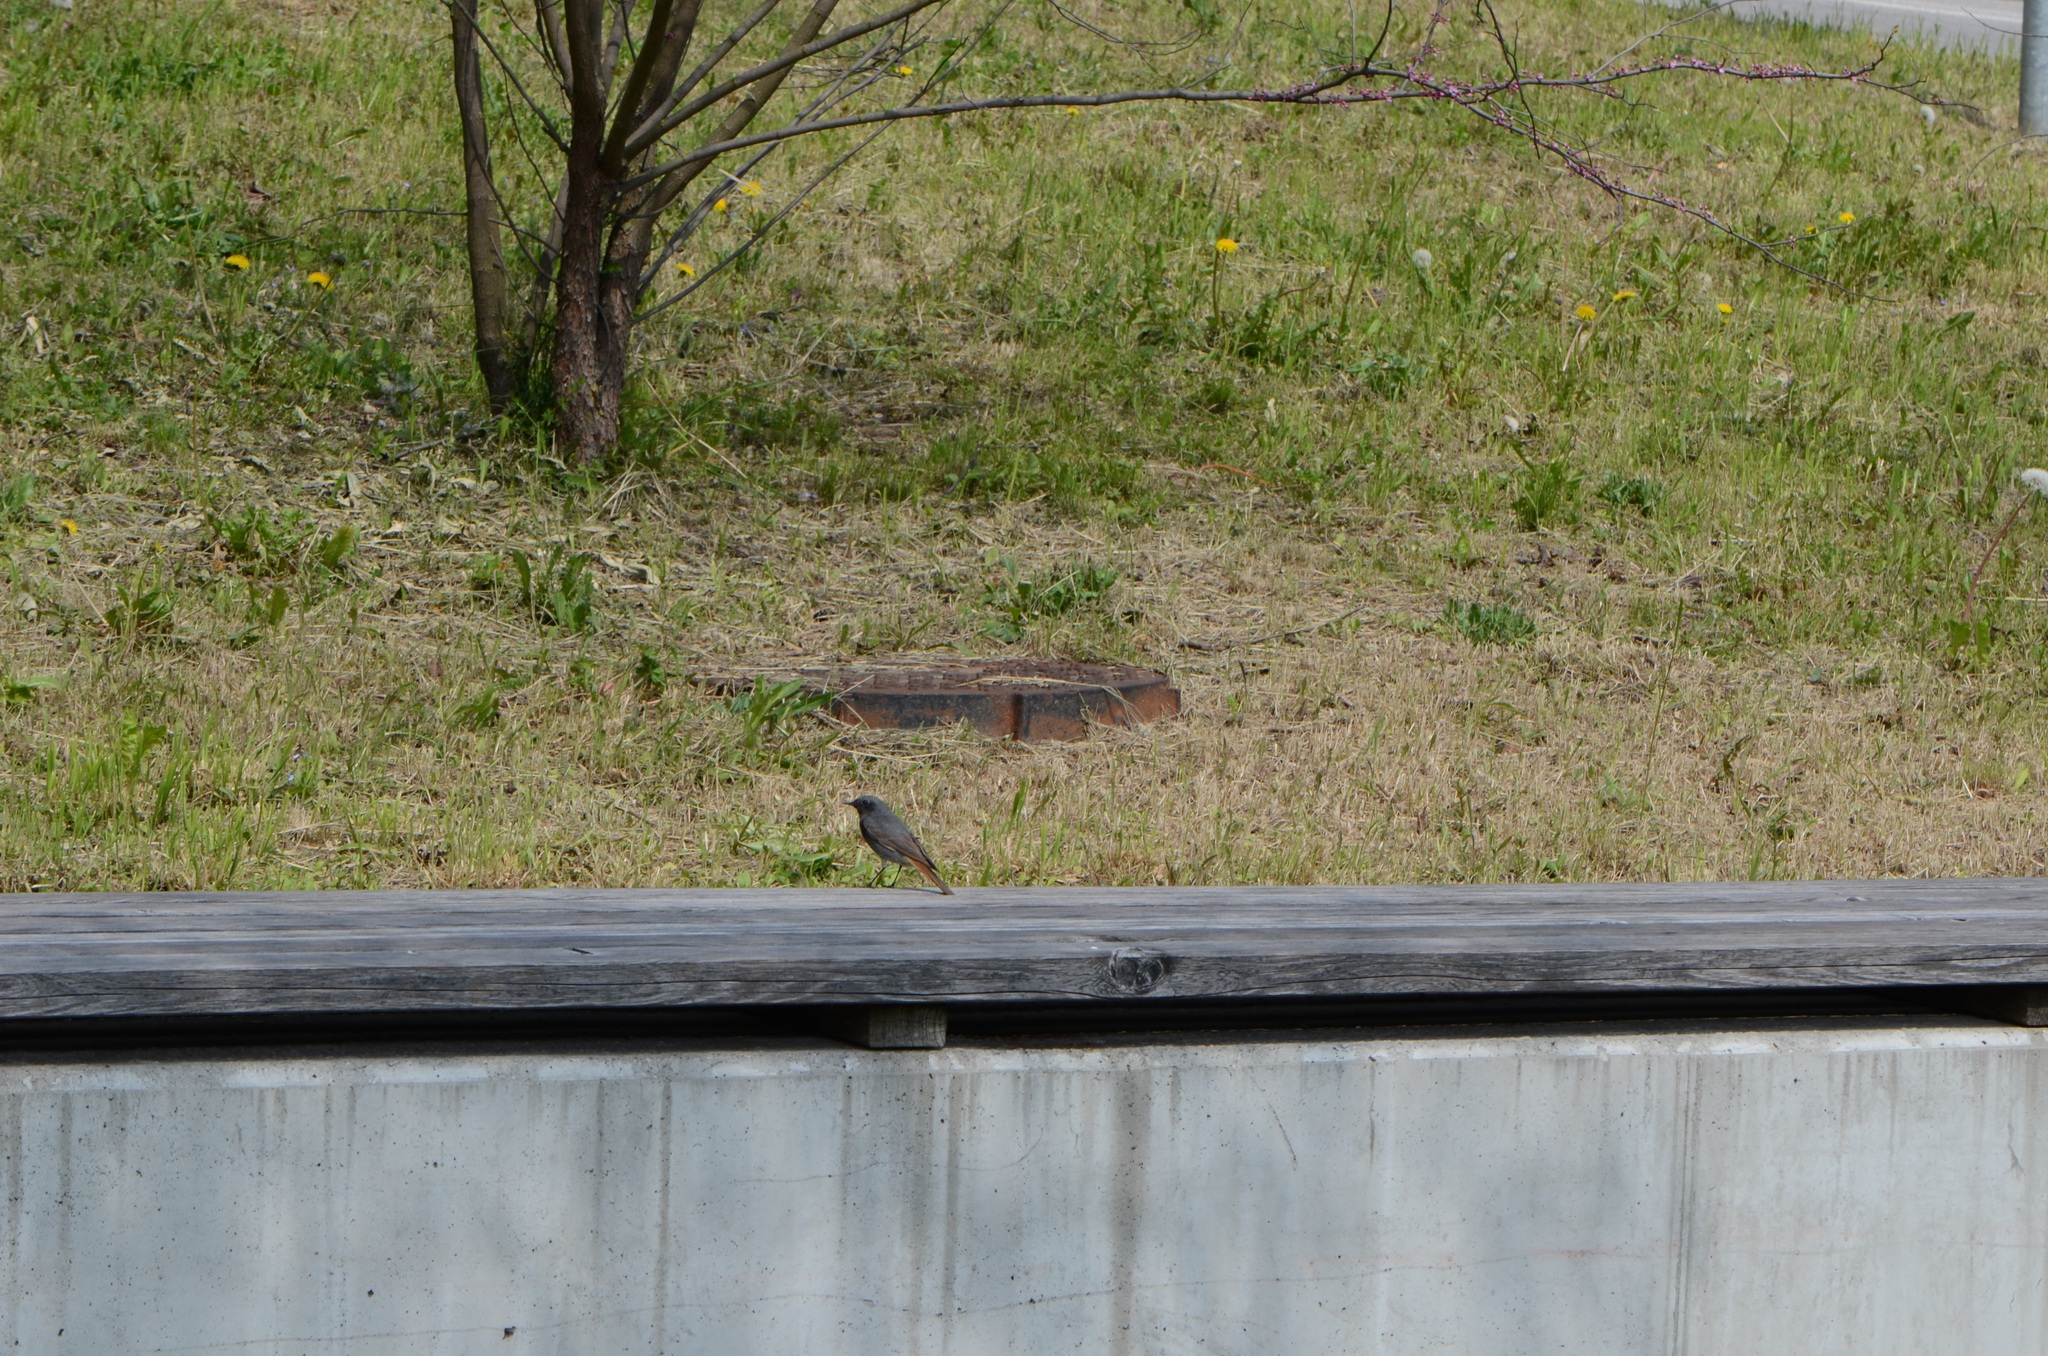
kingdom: Animalia
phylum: Chordata
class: Aves
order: Passeriformes
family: Muscicapidae
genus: Phoenicurus
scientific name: Phoenicurus ochruros
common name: Black redstart
